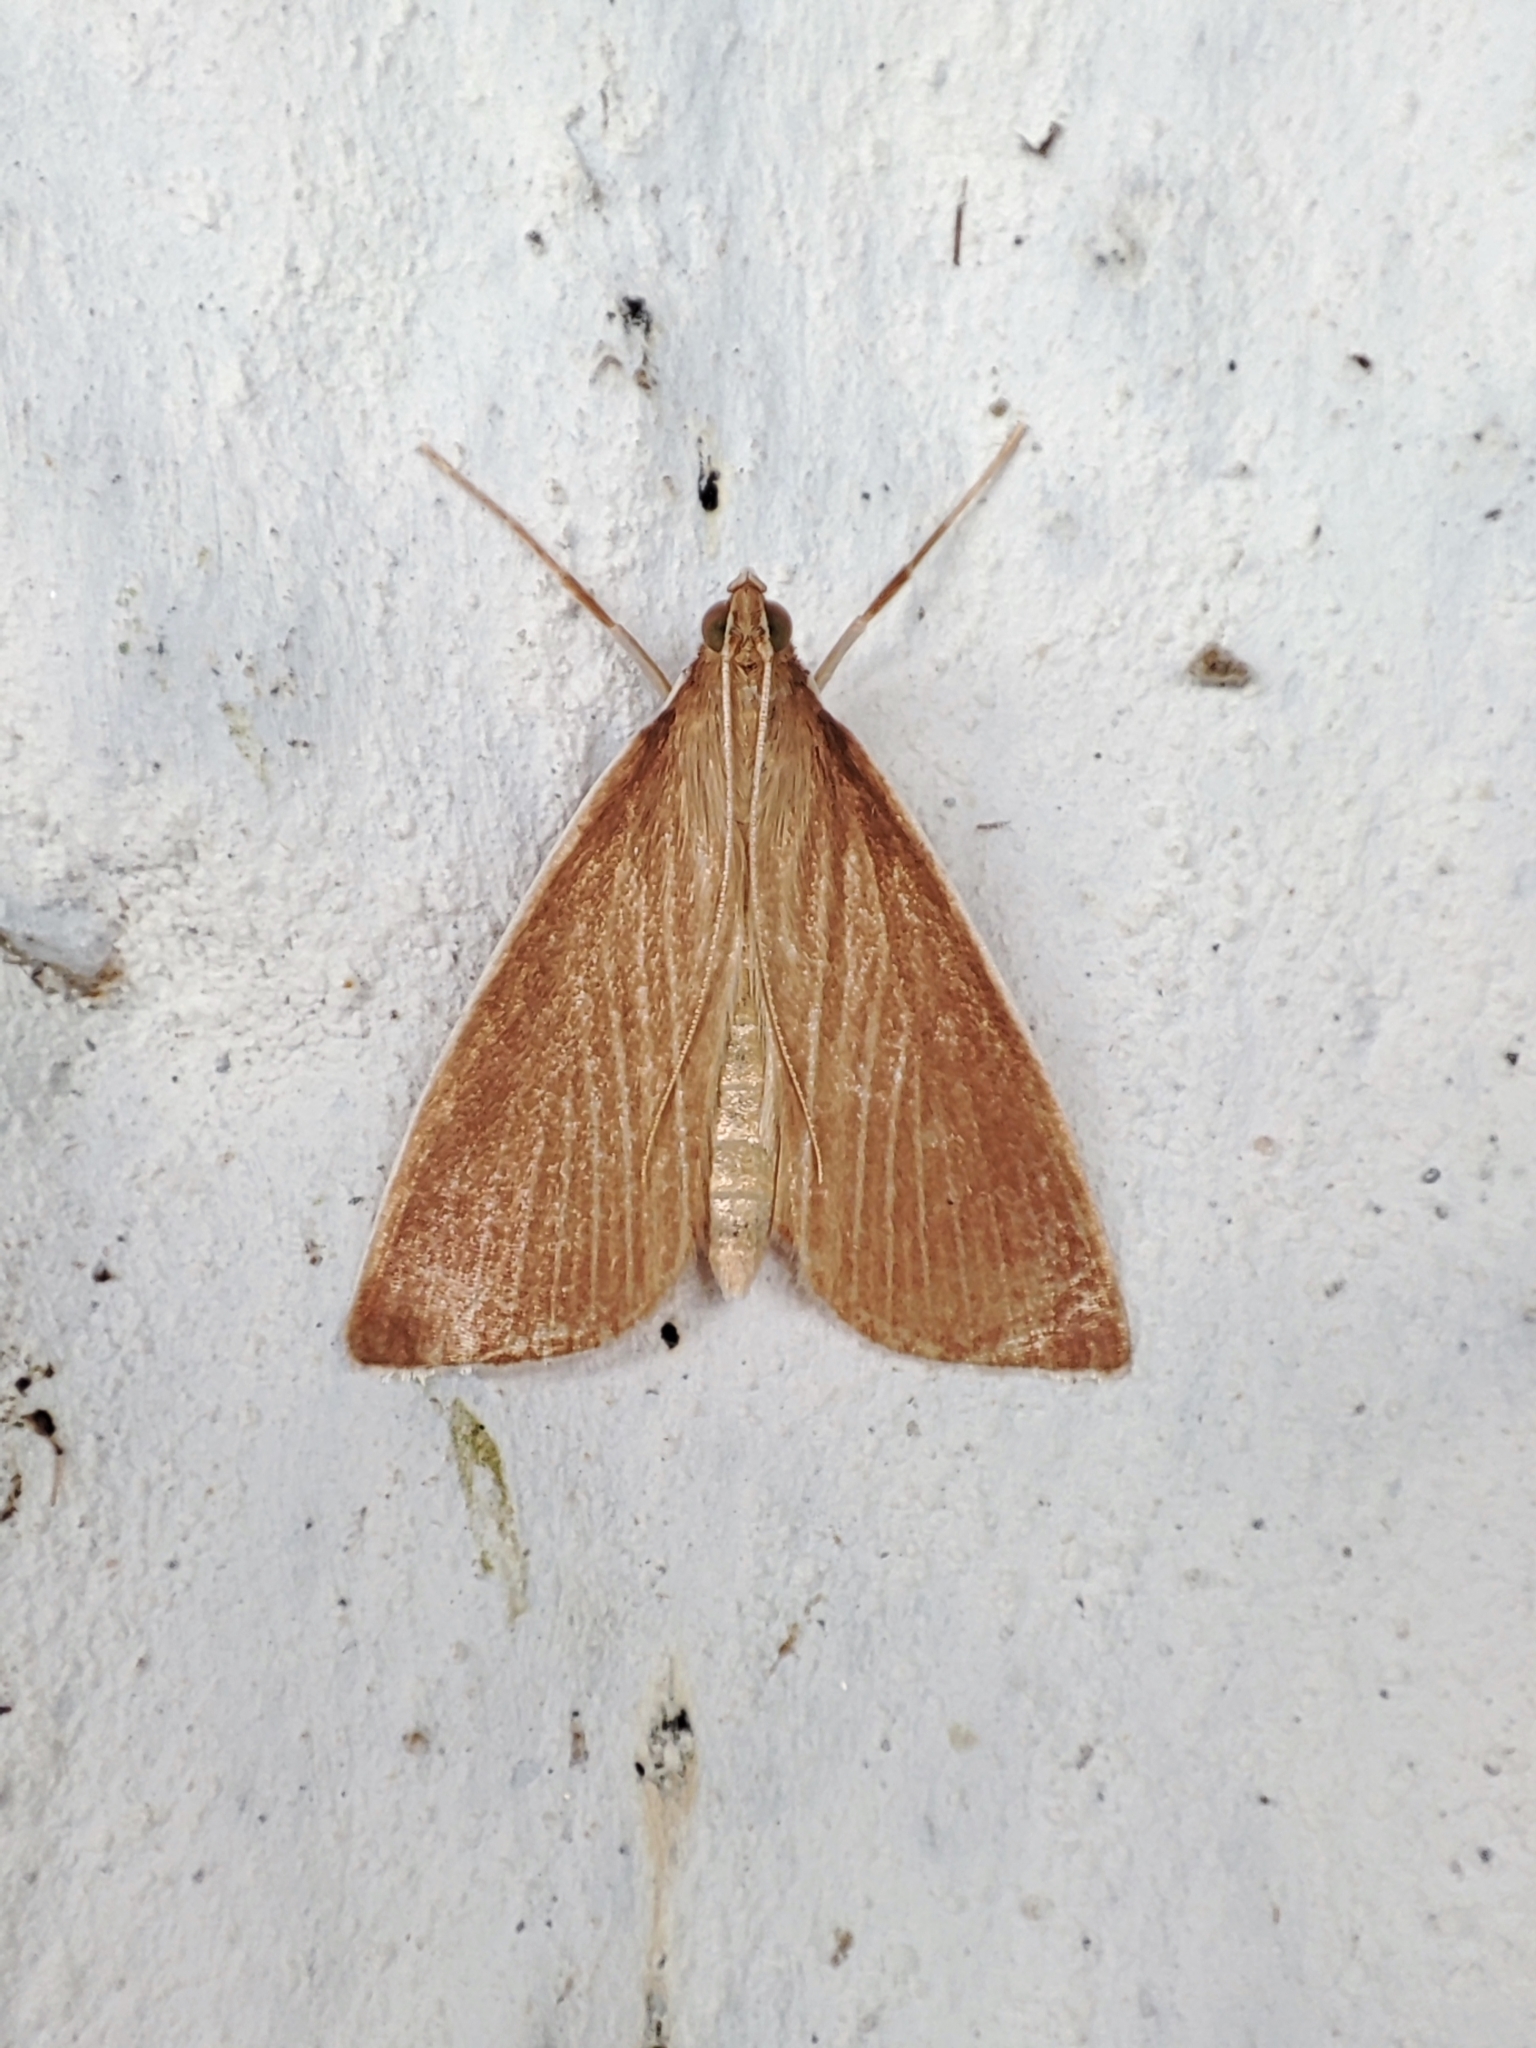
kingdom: Animalia
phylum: Arthropoda
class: Insecta
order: Lepidoptera
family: Crambidae
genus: Calamochrous
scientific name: Calamochrous Sclerocona acutella
